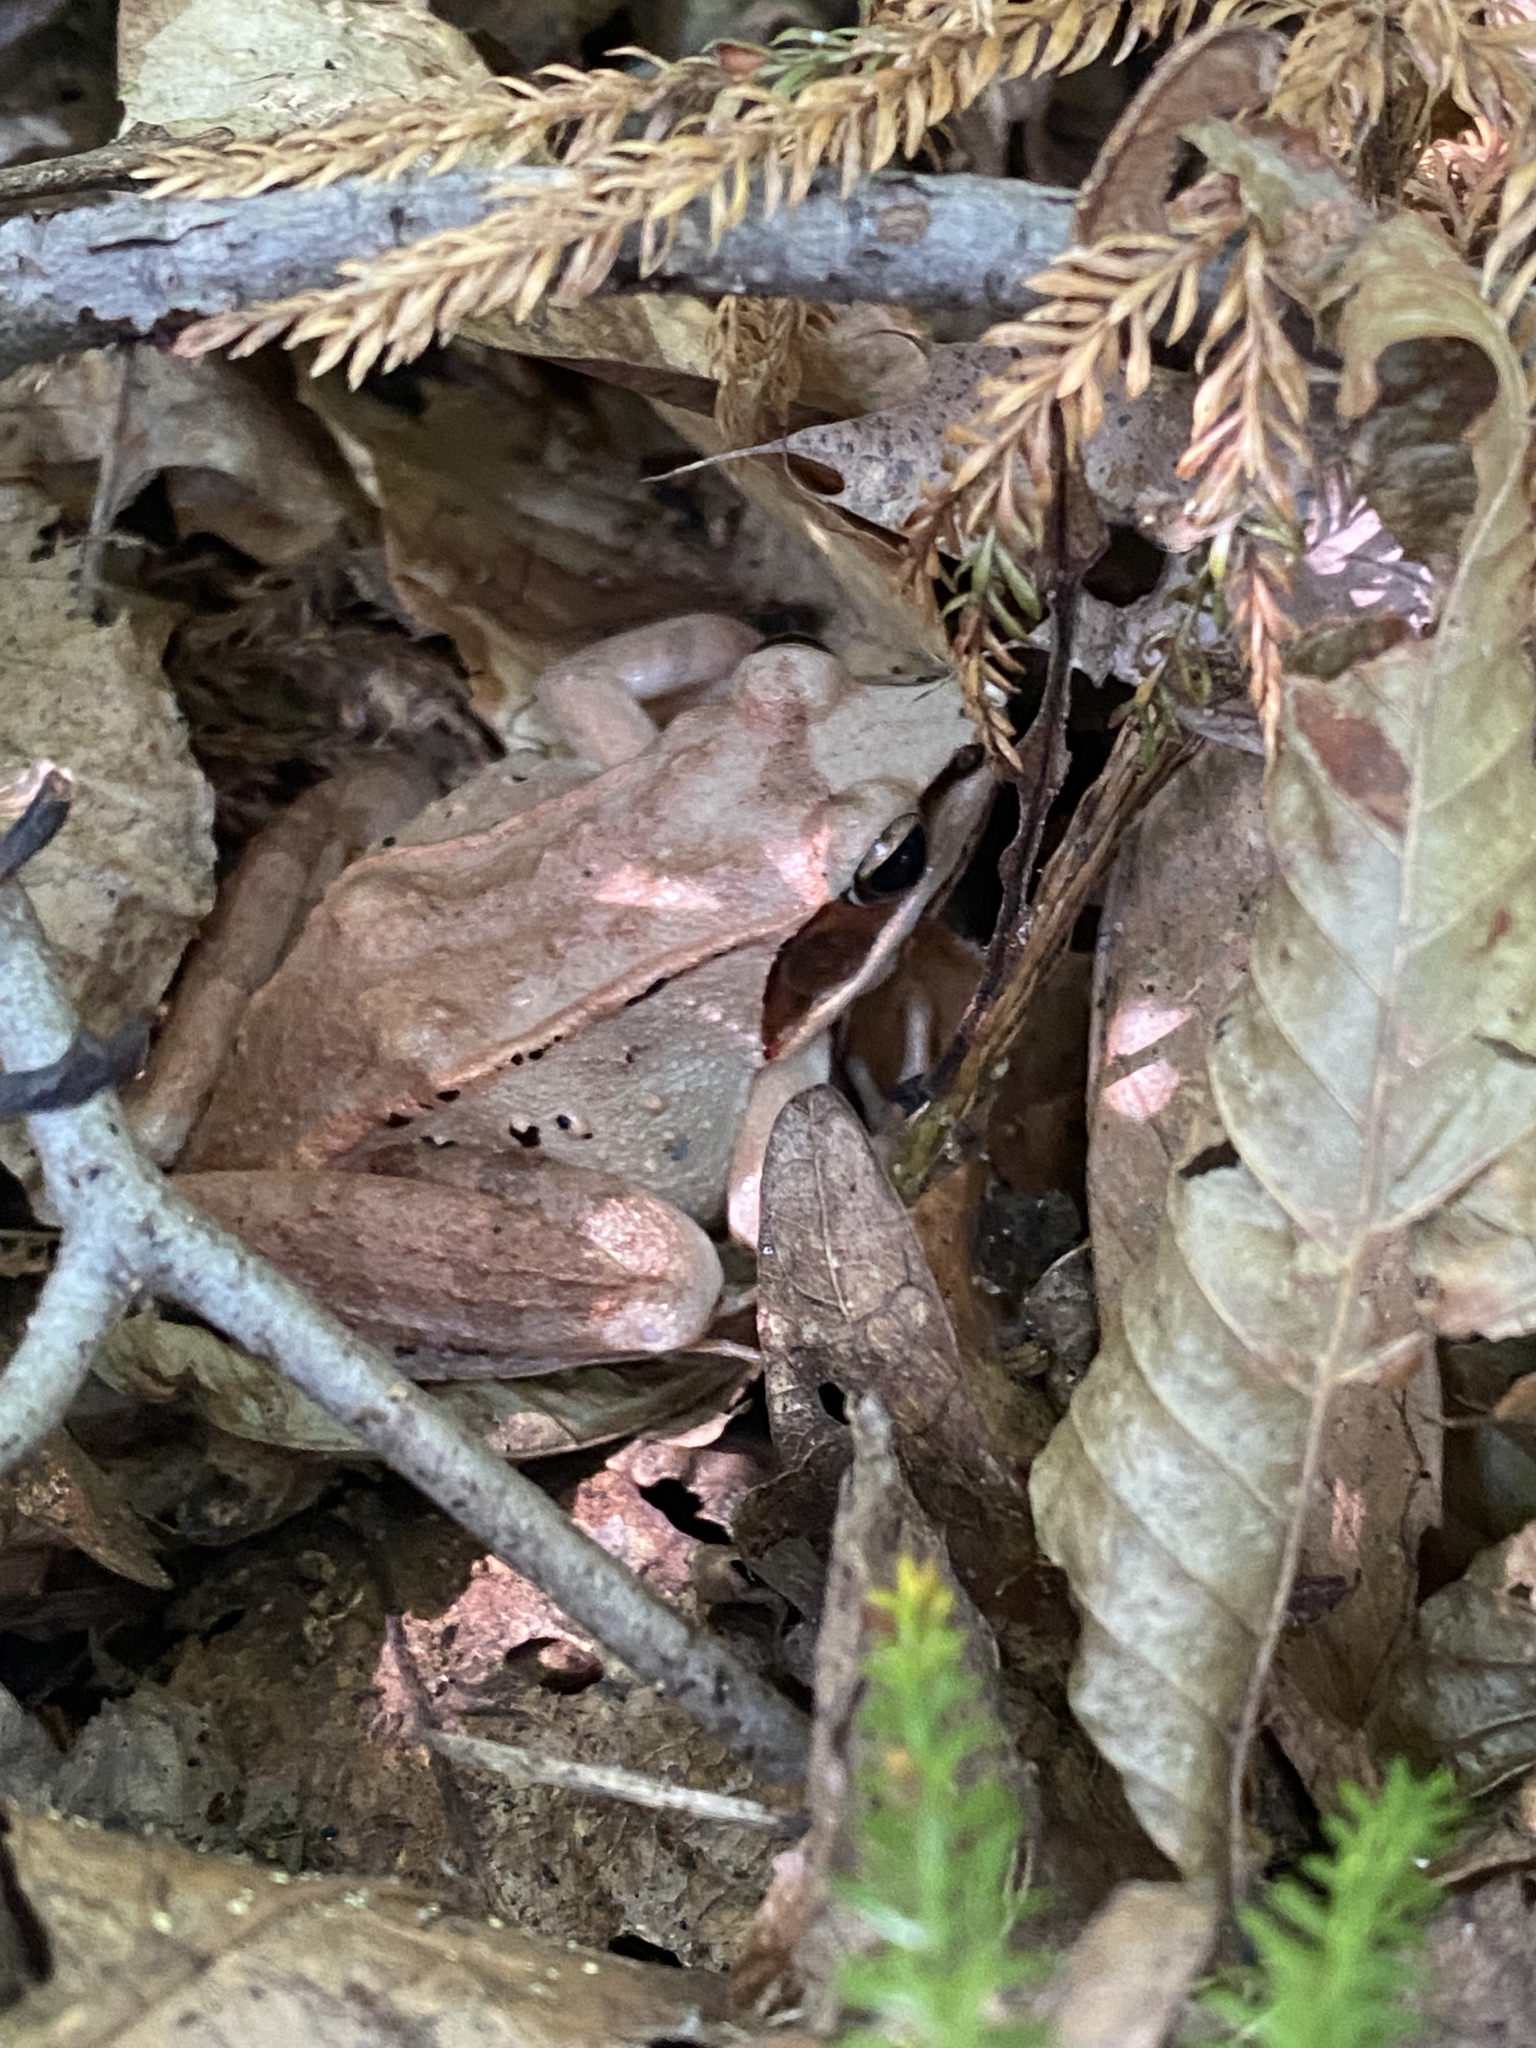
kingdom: Animalia
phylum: Chordata
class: Amphibia
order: Anura
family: Ranidae
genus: Lithobates
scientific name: Lithobates sylvaticus
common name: Wood frog
